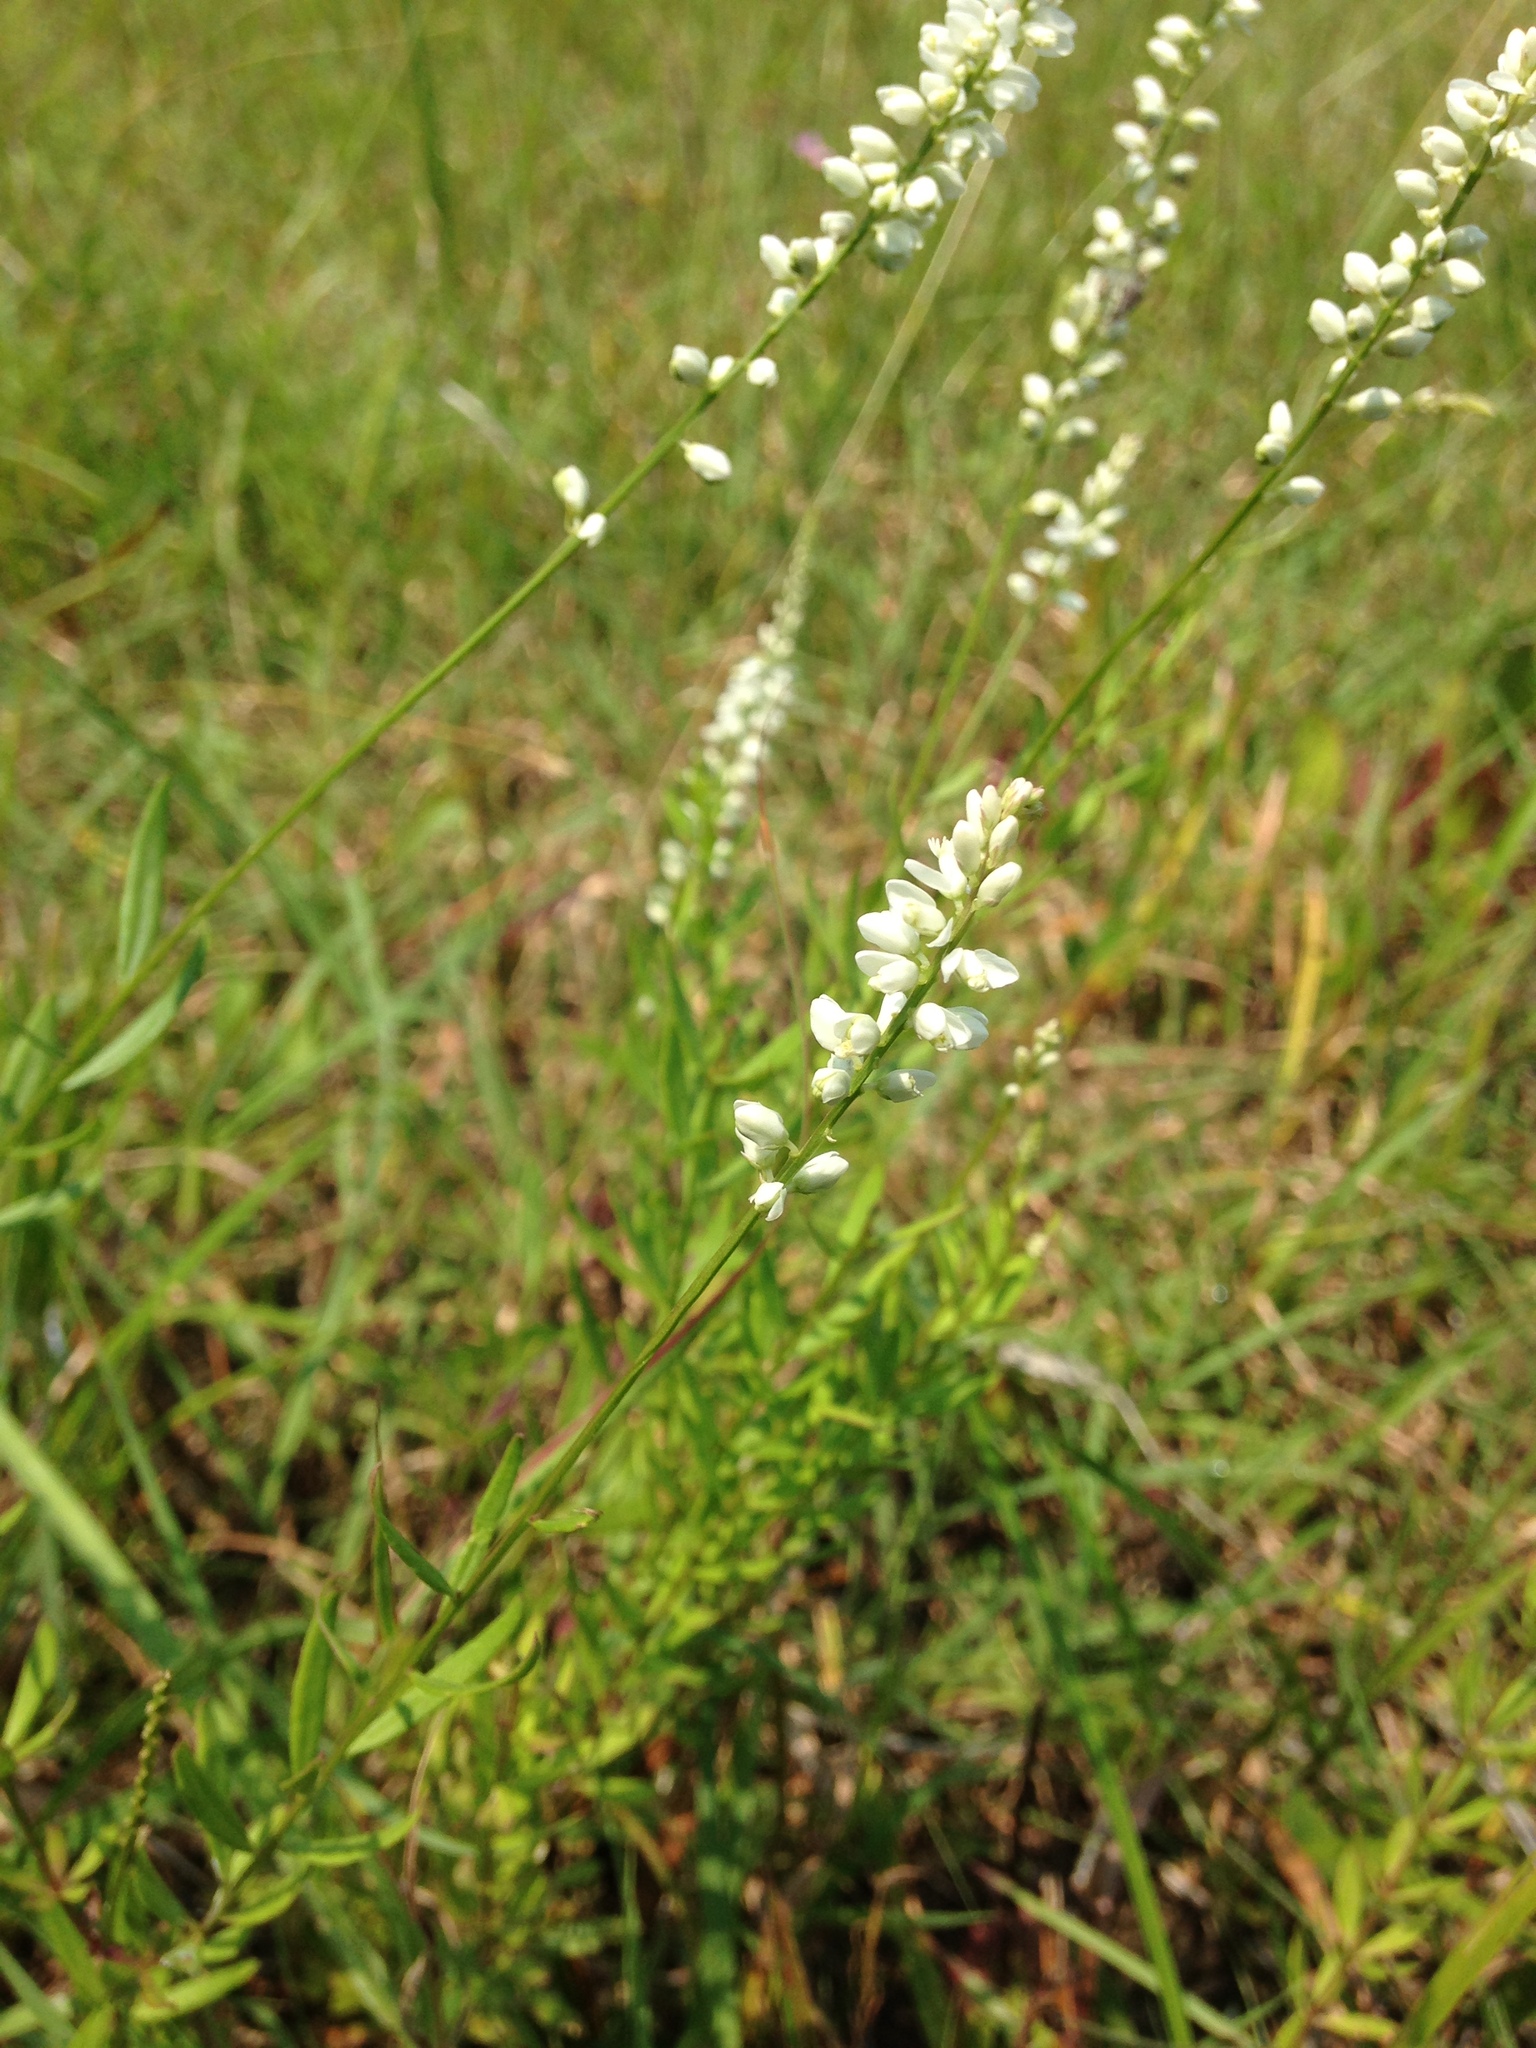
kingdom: Plantae
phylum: Tracheophyta
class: Magnoliopsida
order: Fabales
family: Polygalaceae
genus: Polygala
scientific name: Polygala boykinii
